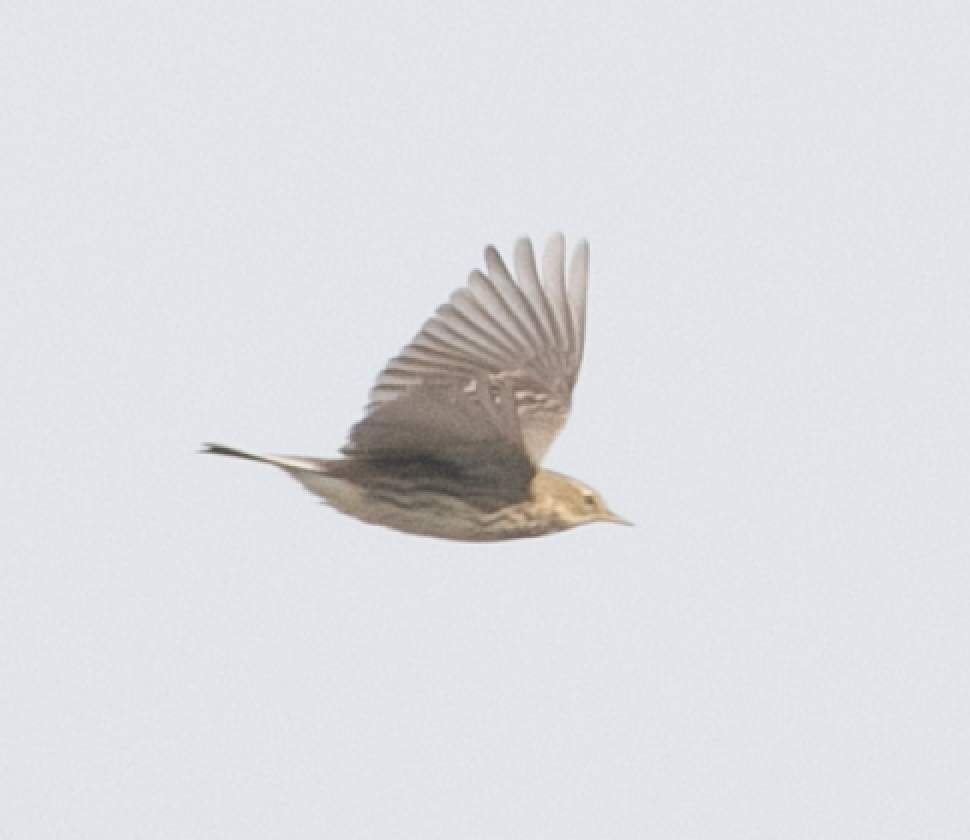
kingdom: Animalia
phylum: Chordata
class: Aves
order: Passeriformes
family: Motacillidae
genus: Anthus
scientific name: Anthus pratensis
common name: Meadow pipit
